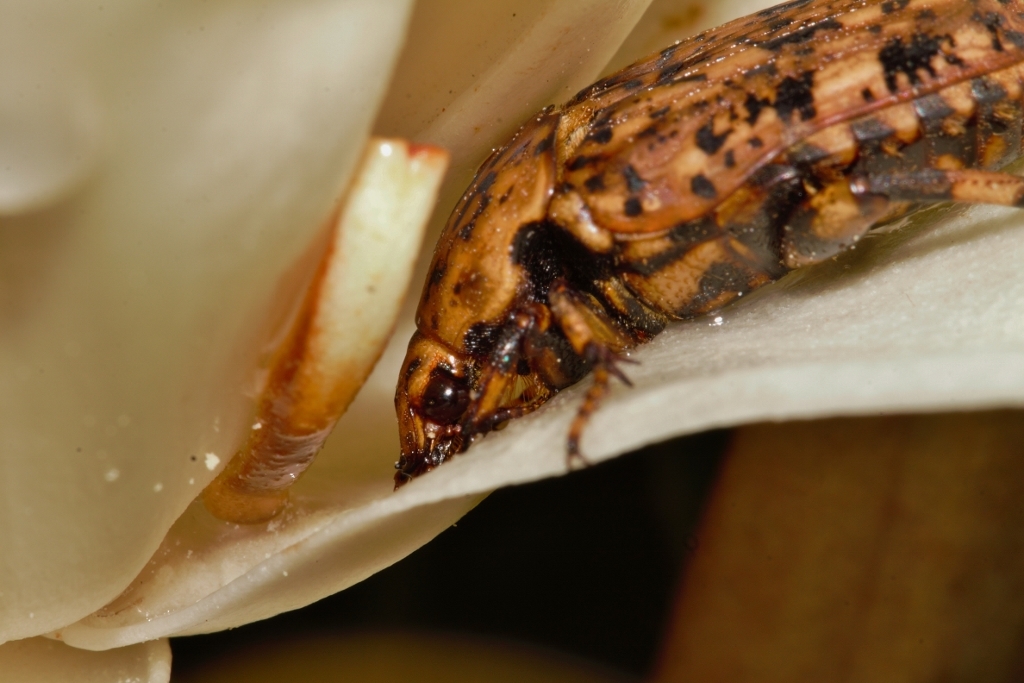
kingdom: Animalia
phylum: Arthropoda
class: Insecta
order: Coleoptera
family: Scarabaeidae
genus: Porphyronota
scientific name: Porphyronota maculatissima
